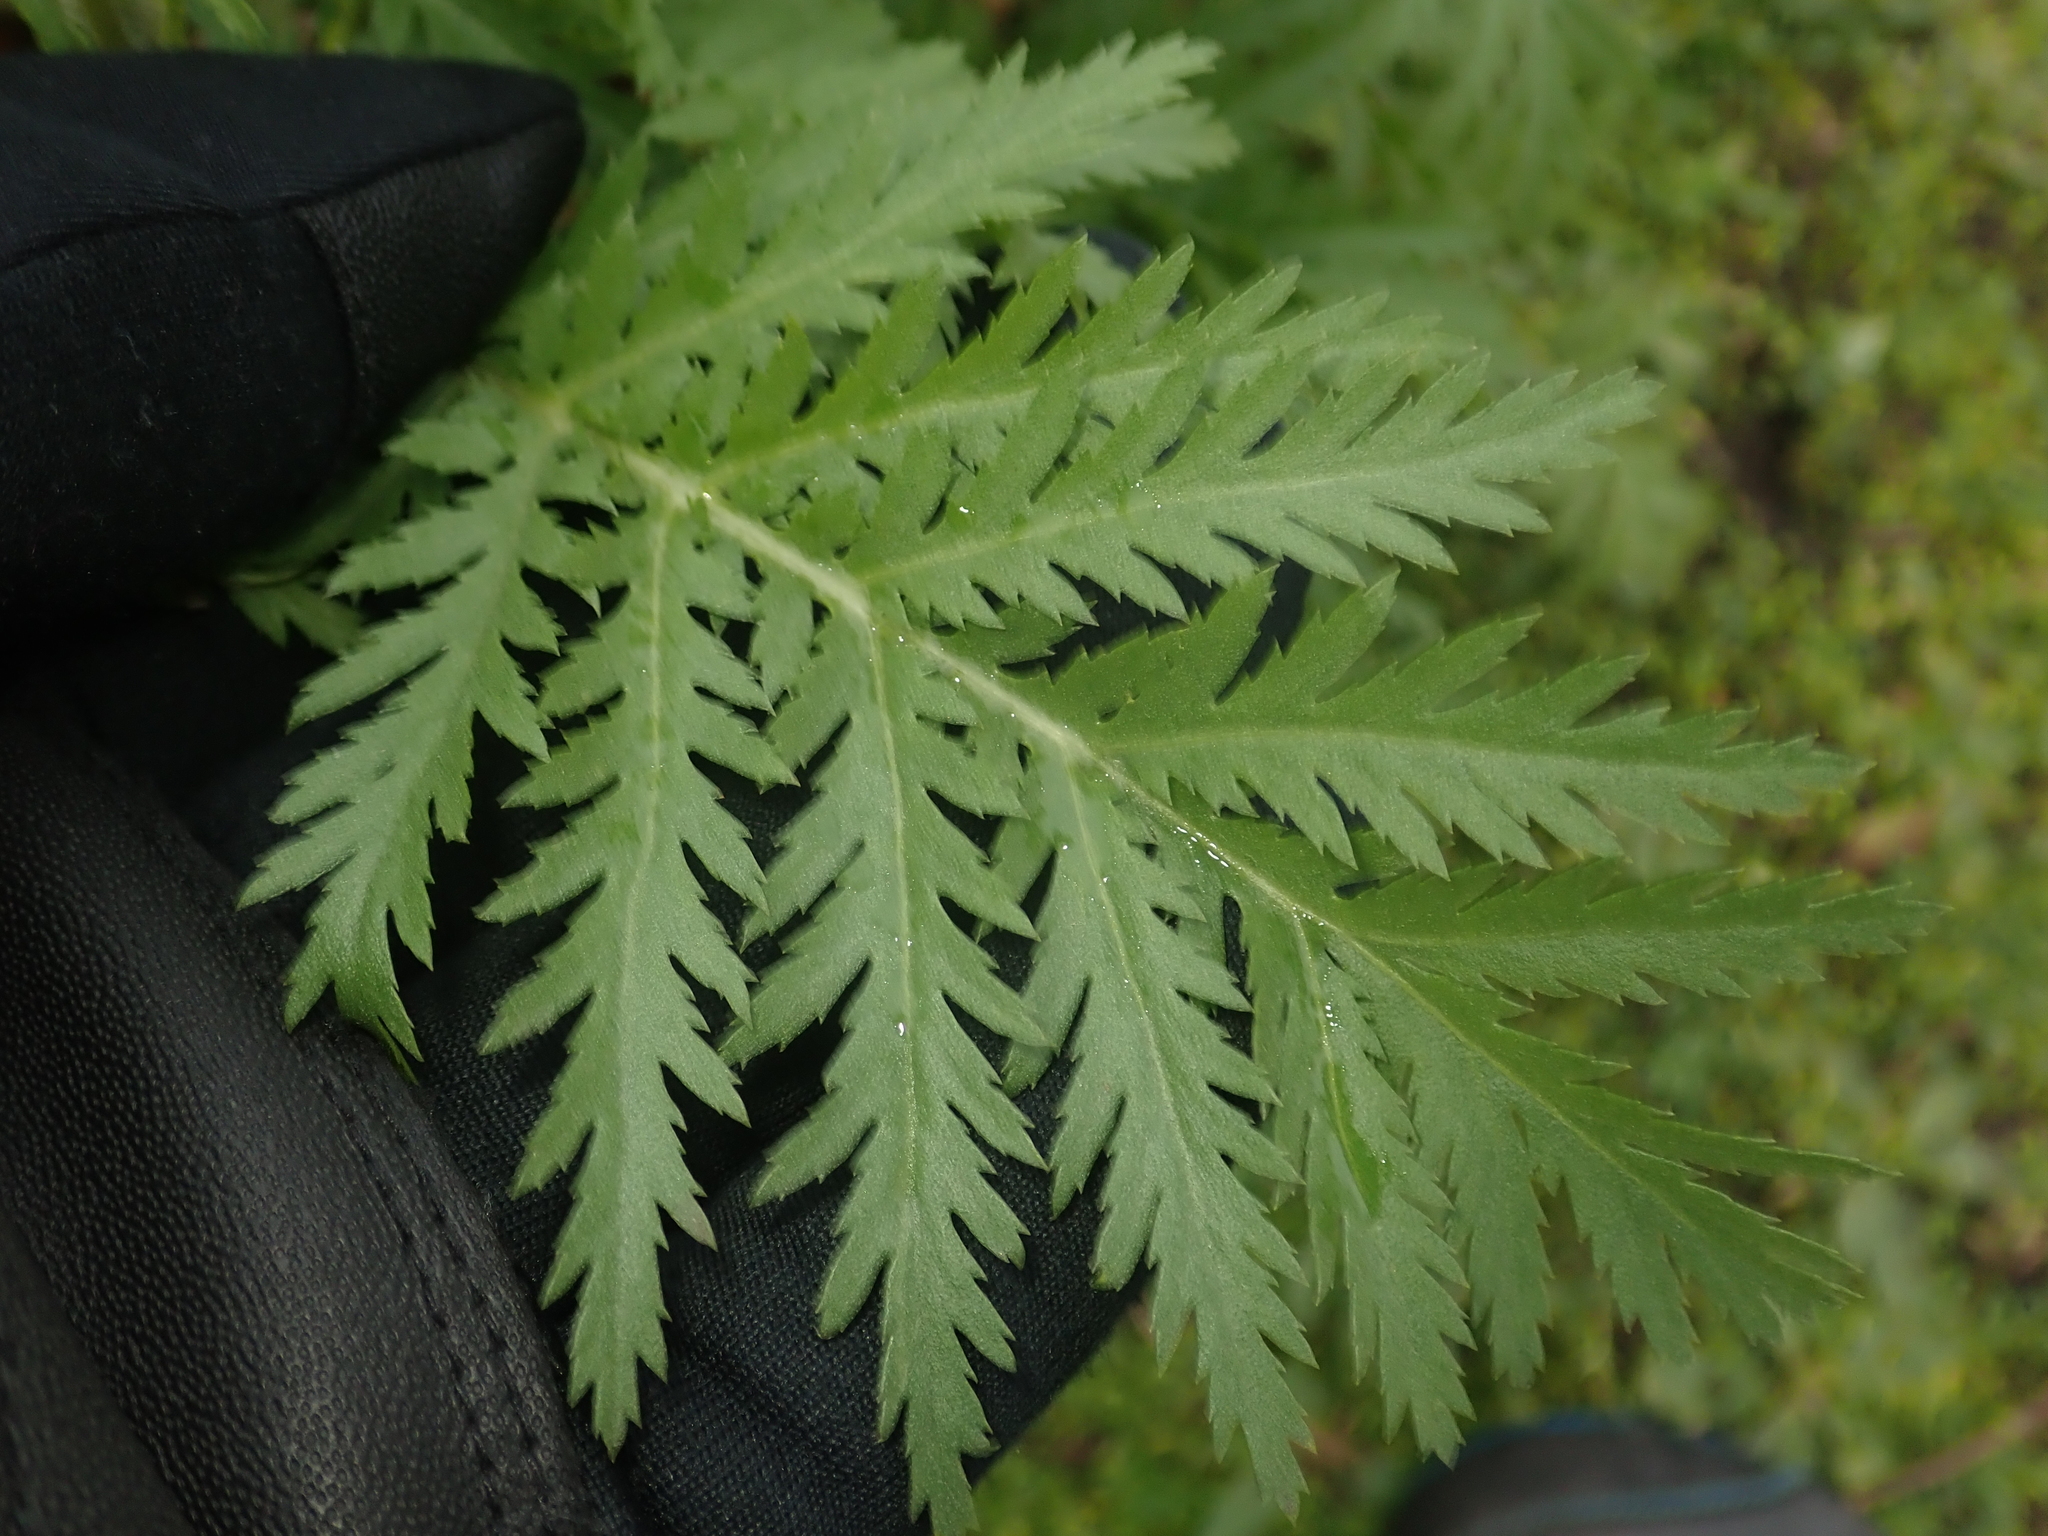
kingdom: Plantae
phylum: Tracheophyta
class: Magnoliopsida
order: Asterales
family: Asteraceae
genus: Tanacetum
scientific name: Tanacetum vulgare
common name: Common tansy
